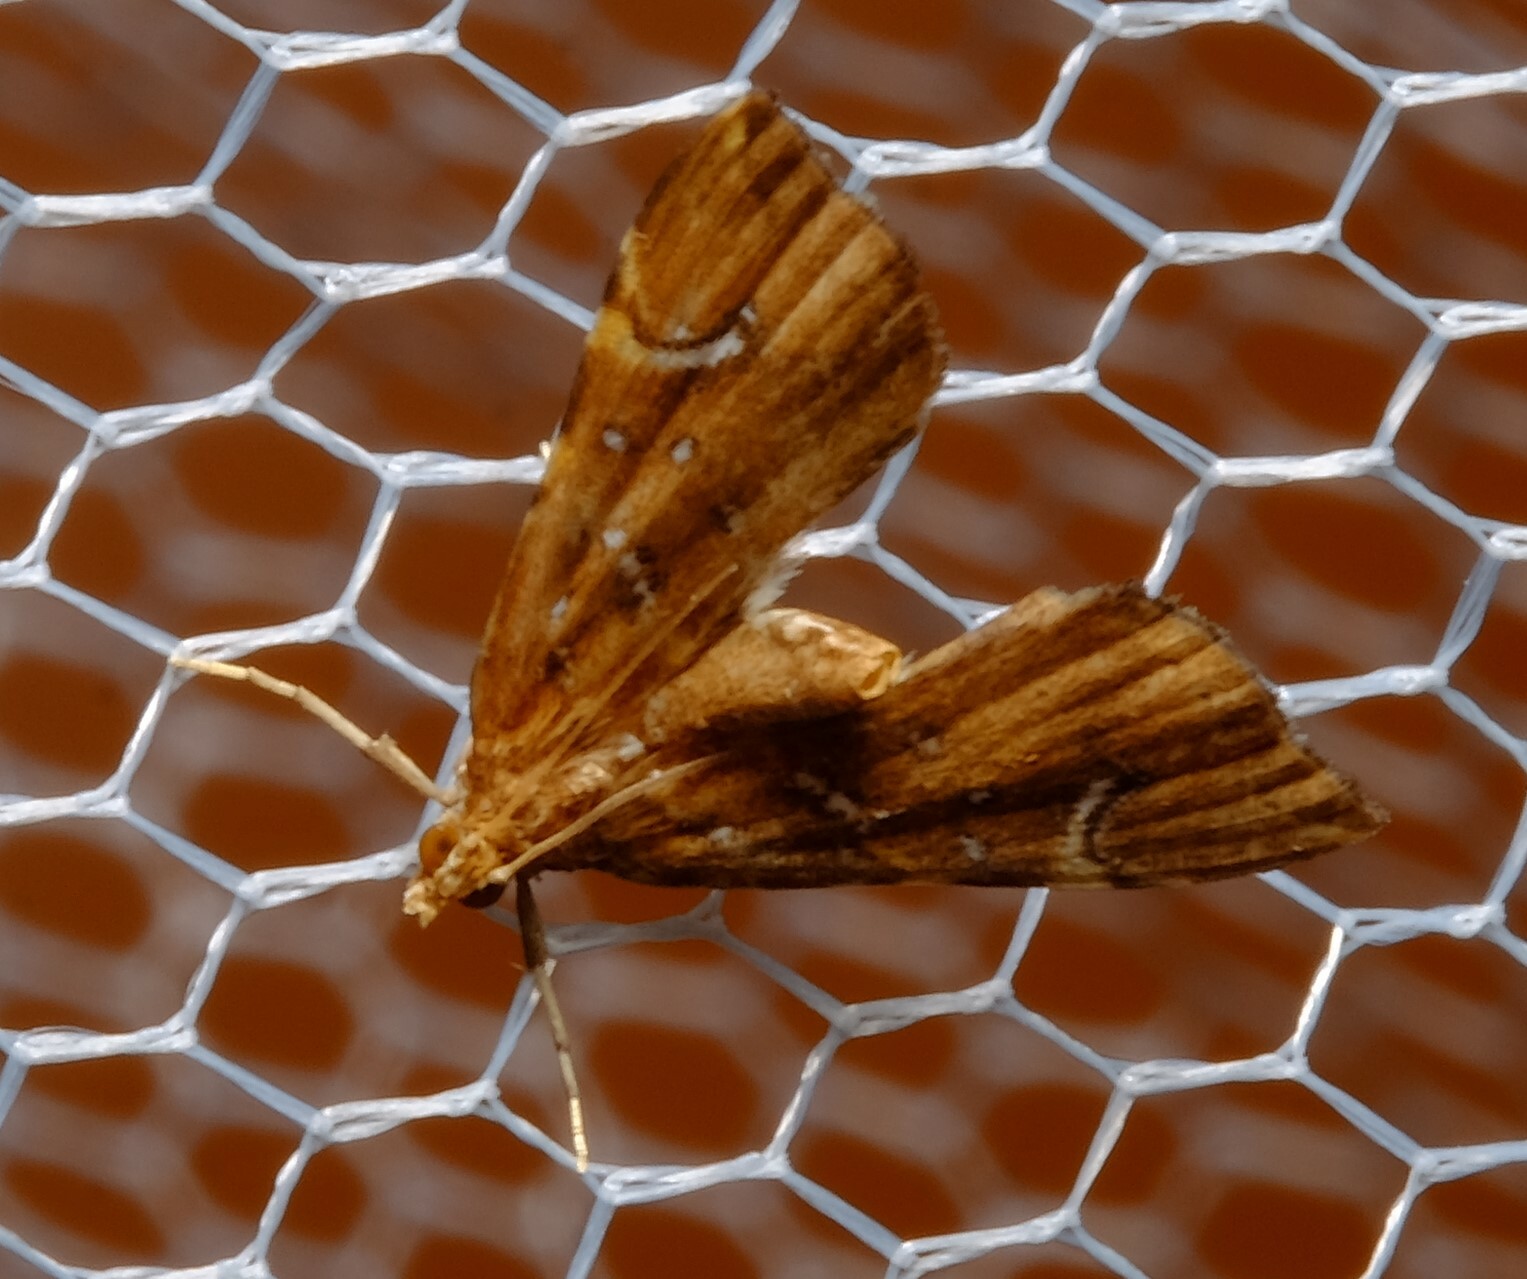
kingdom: Animalia
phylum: Arthropoda
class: Insecta
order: Lepidoptera
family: Pyralidae
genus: Musotima
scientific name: Musotima nitidalis
